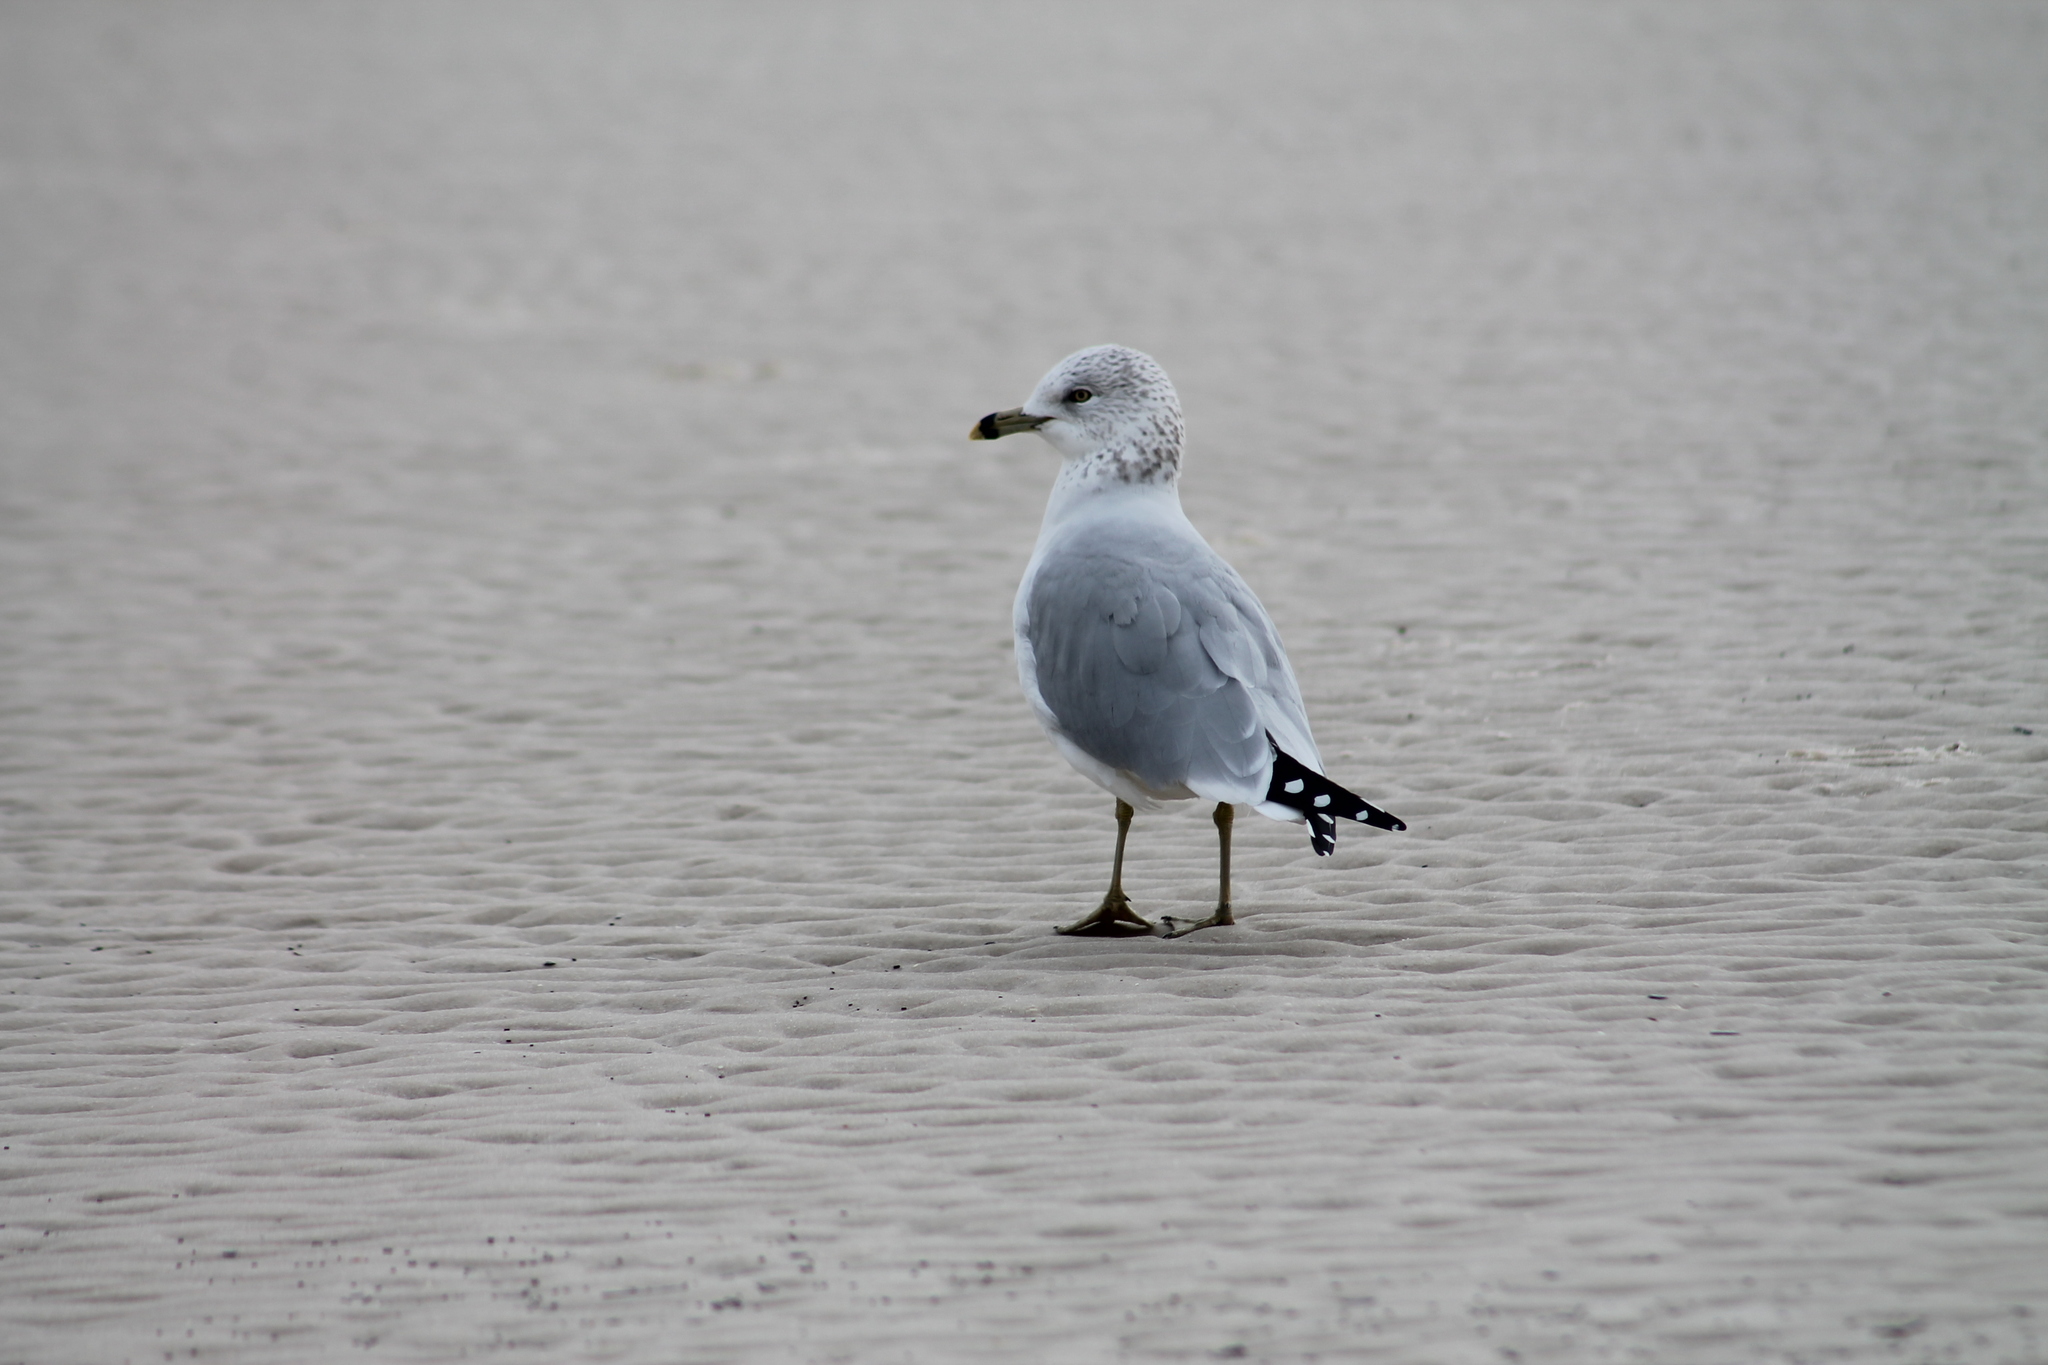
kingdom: Animalia
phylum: Chordata
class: Aves
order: Charadriiformes
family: Laridae
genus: Larus
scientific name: Larus delawarensis
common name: Ring-billed gull
